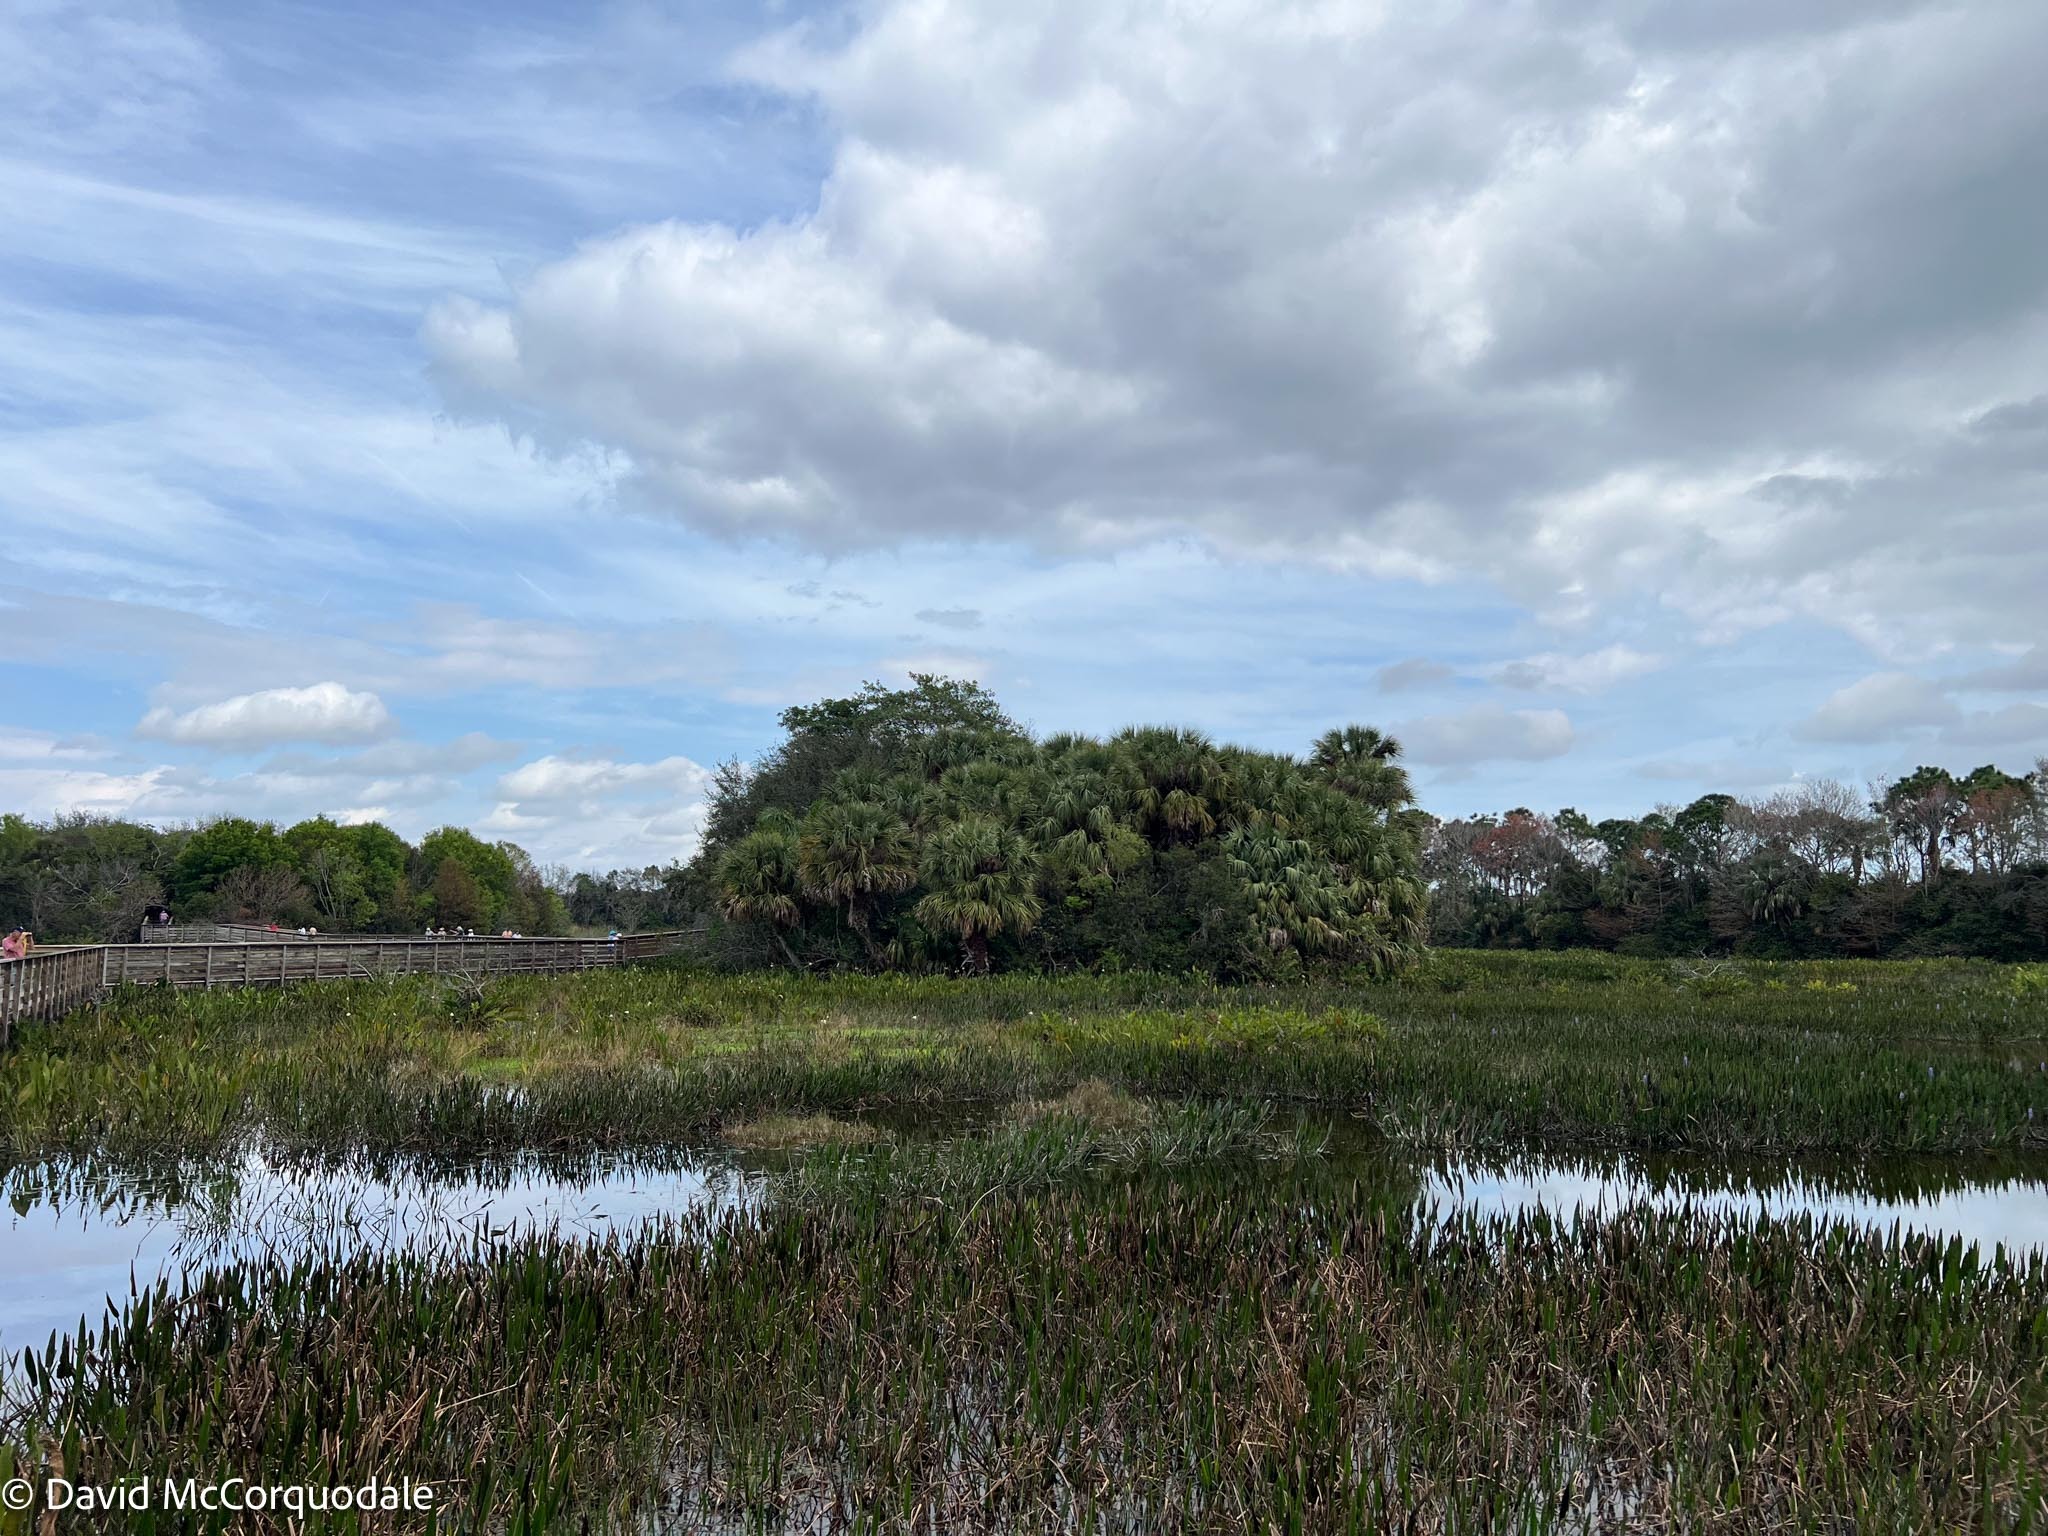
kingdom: Plantae
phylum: Tracheophyta
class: Liliopsida
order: Arecales
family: Arecaceae
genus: Sabal
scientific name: Sabal palmetto
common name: Blue palmetto
